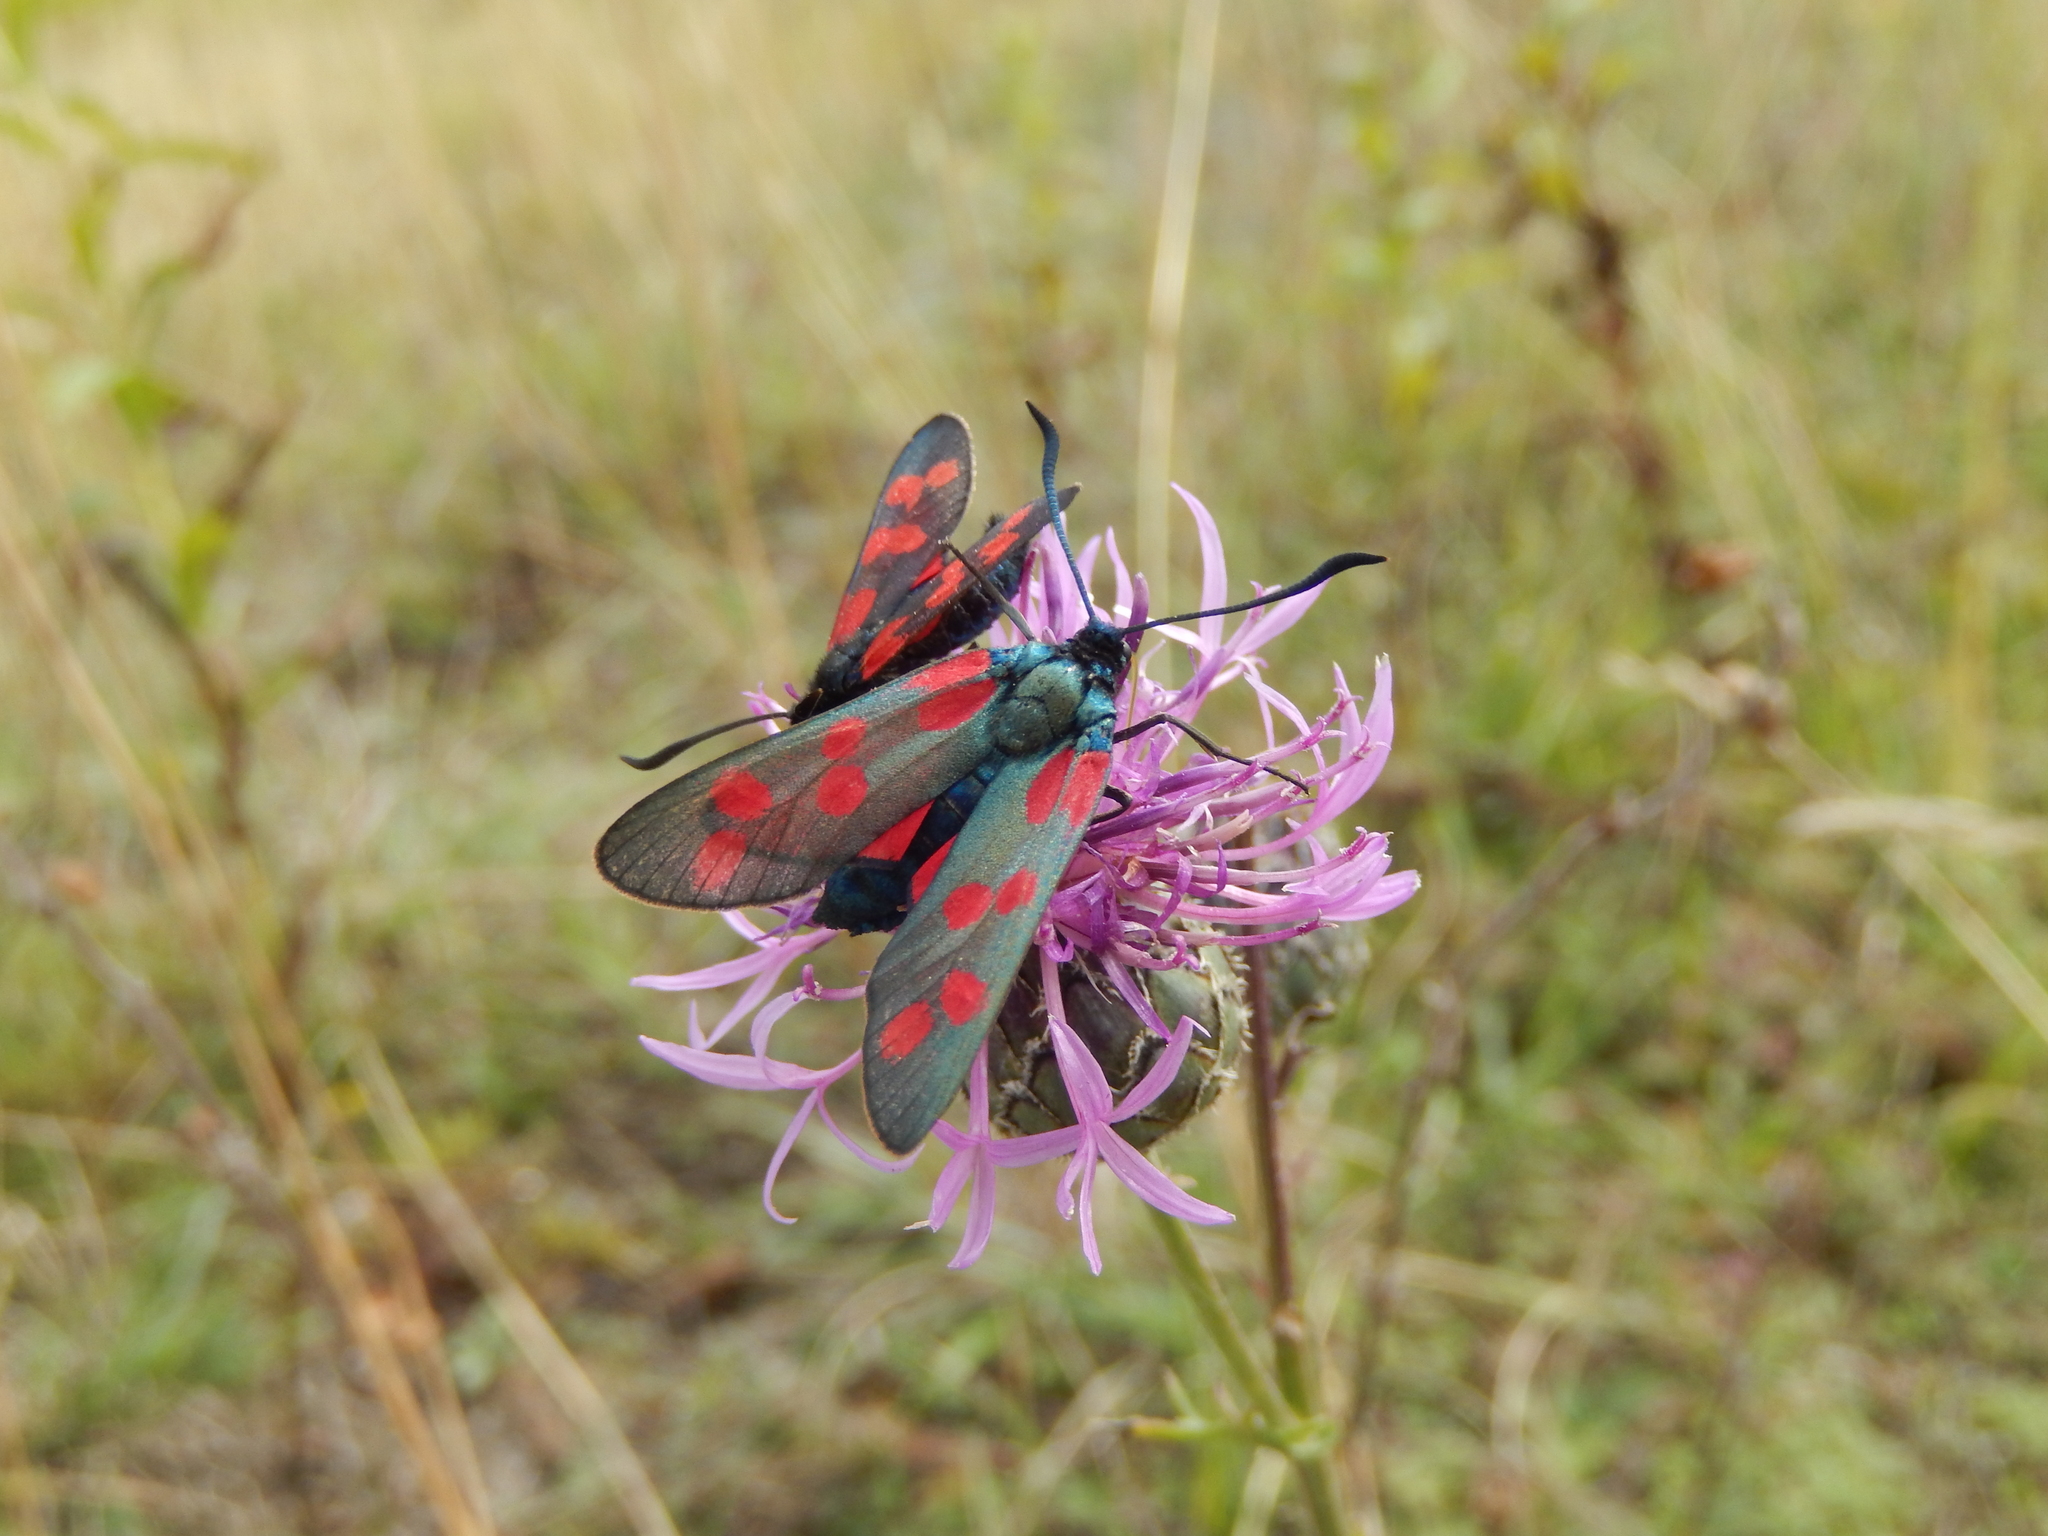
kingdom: Animalia
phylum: Arthropoda
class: Insecta
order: Lepidoptera
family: Zygaenidae
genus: Zygaena
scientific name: Zygaena filipendulae
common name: Six-spot burnet
